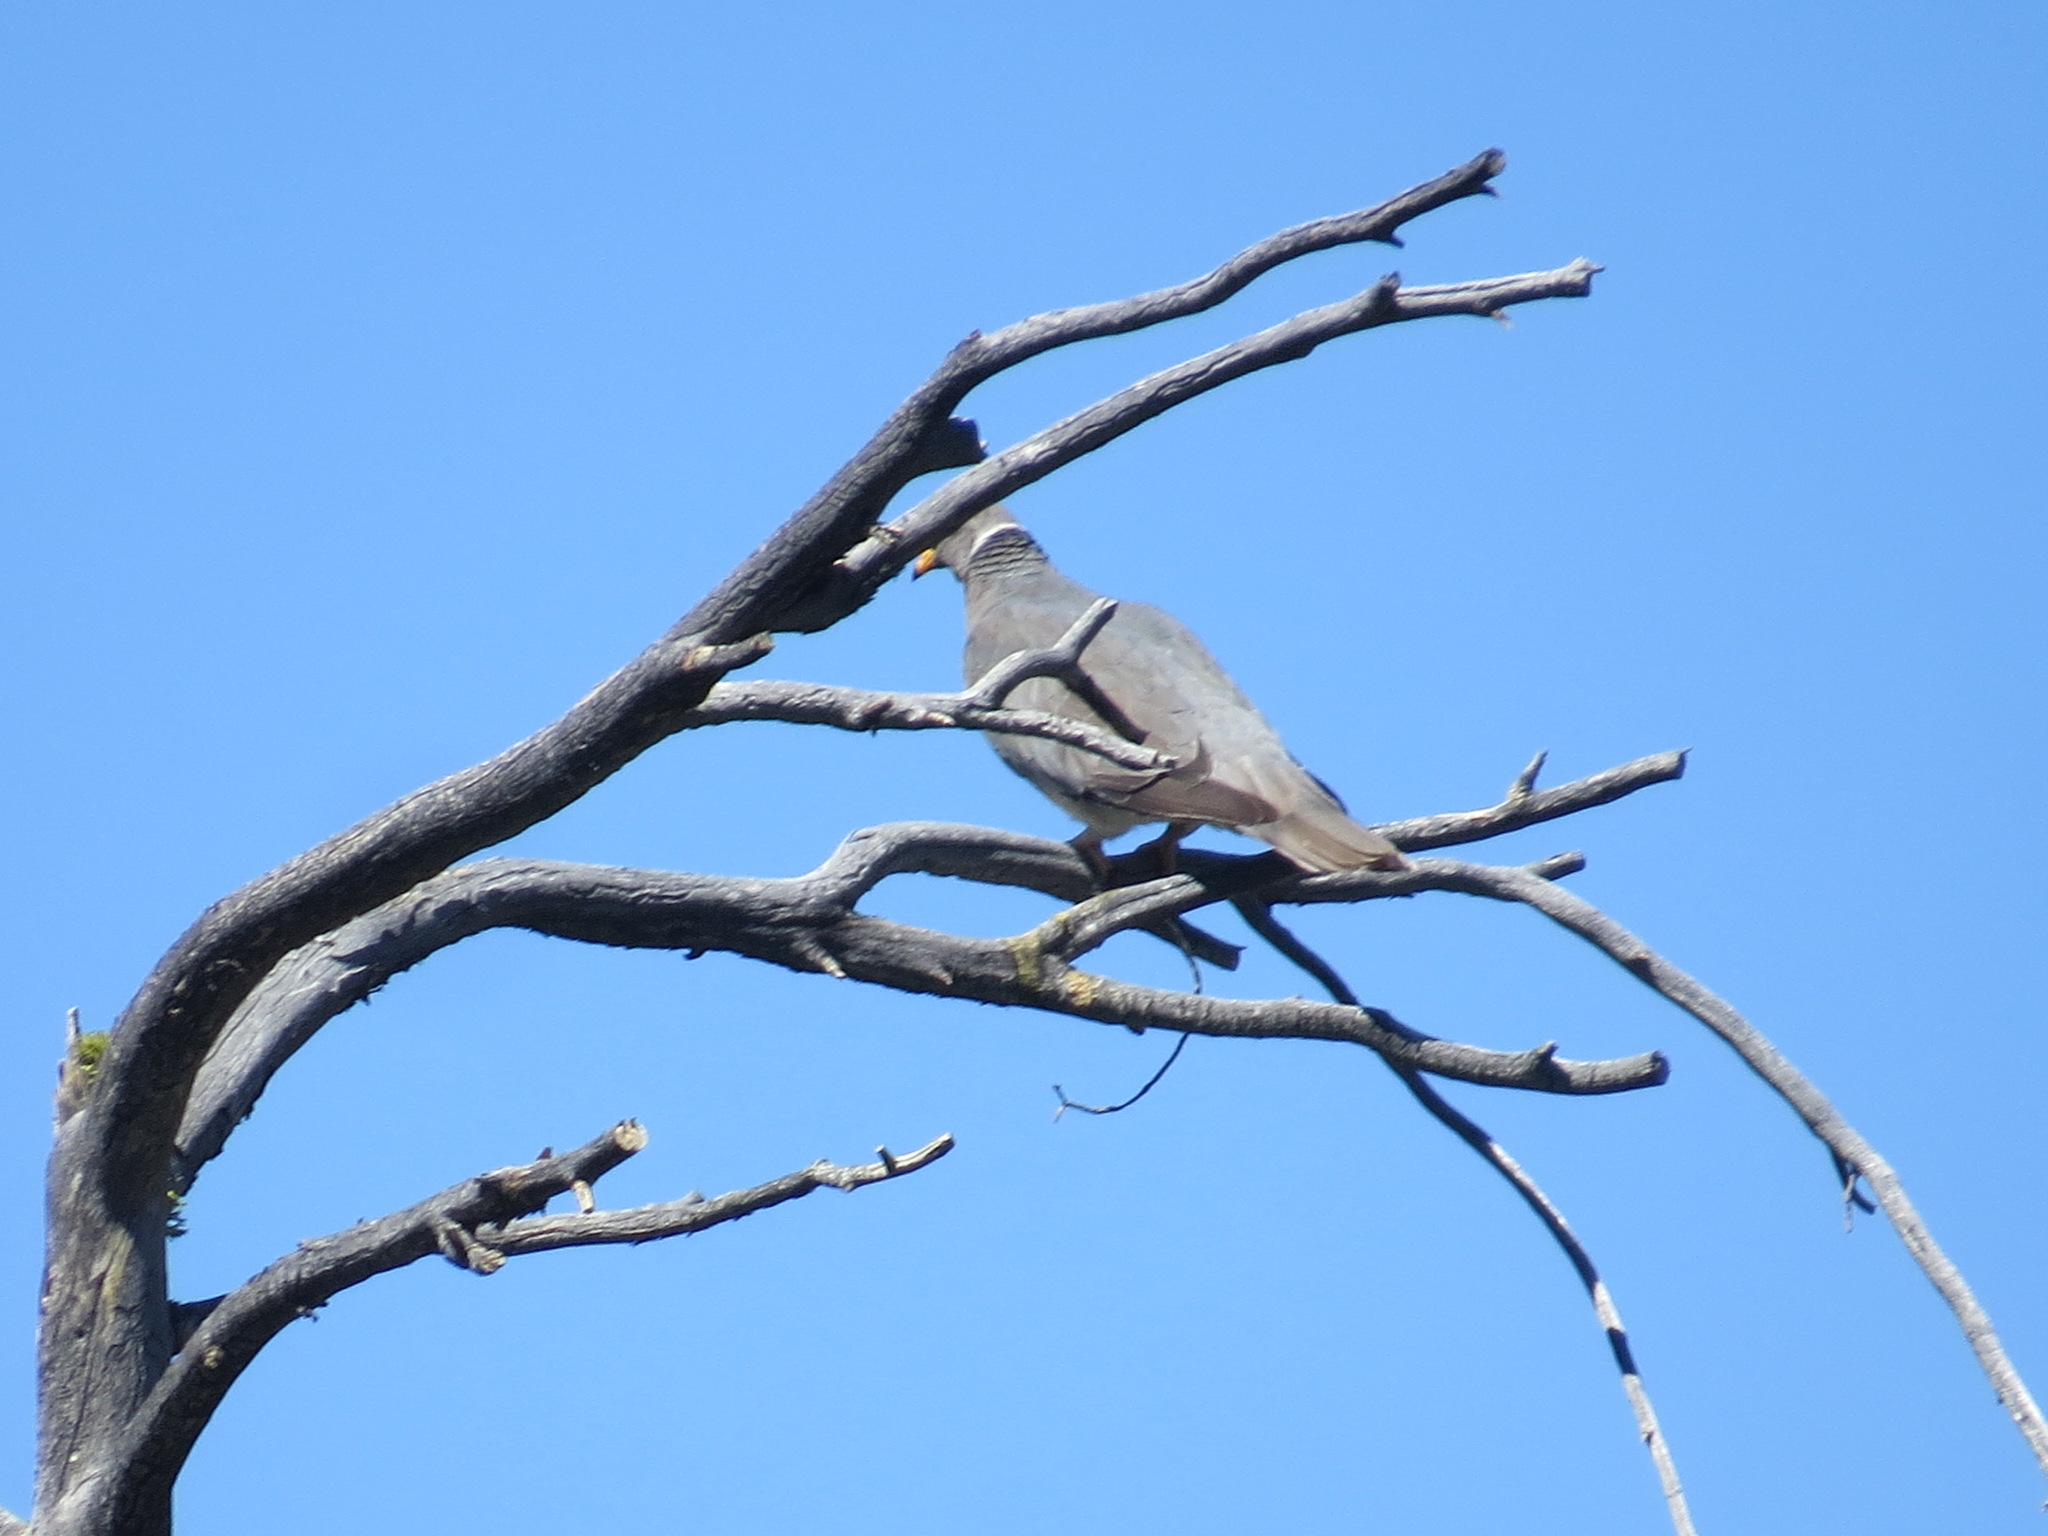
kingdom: Animalia
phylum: Chordata
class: Aves
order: Columbiformes
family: Columbidae
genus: Patagioenas
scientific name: Patagioenas fasciata
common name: Band-tailed pigeon
